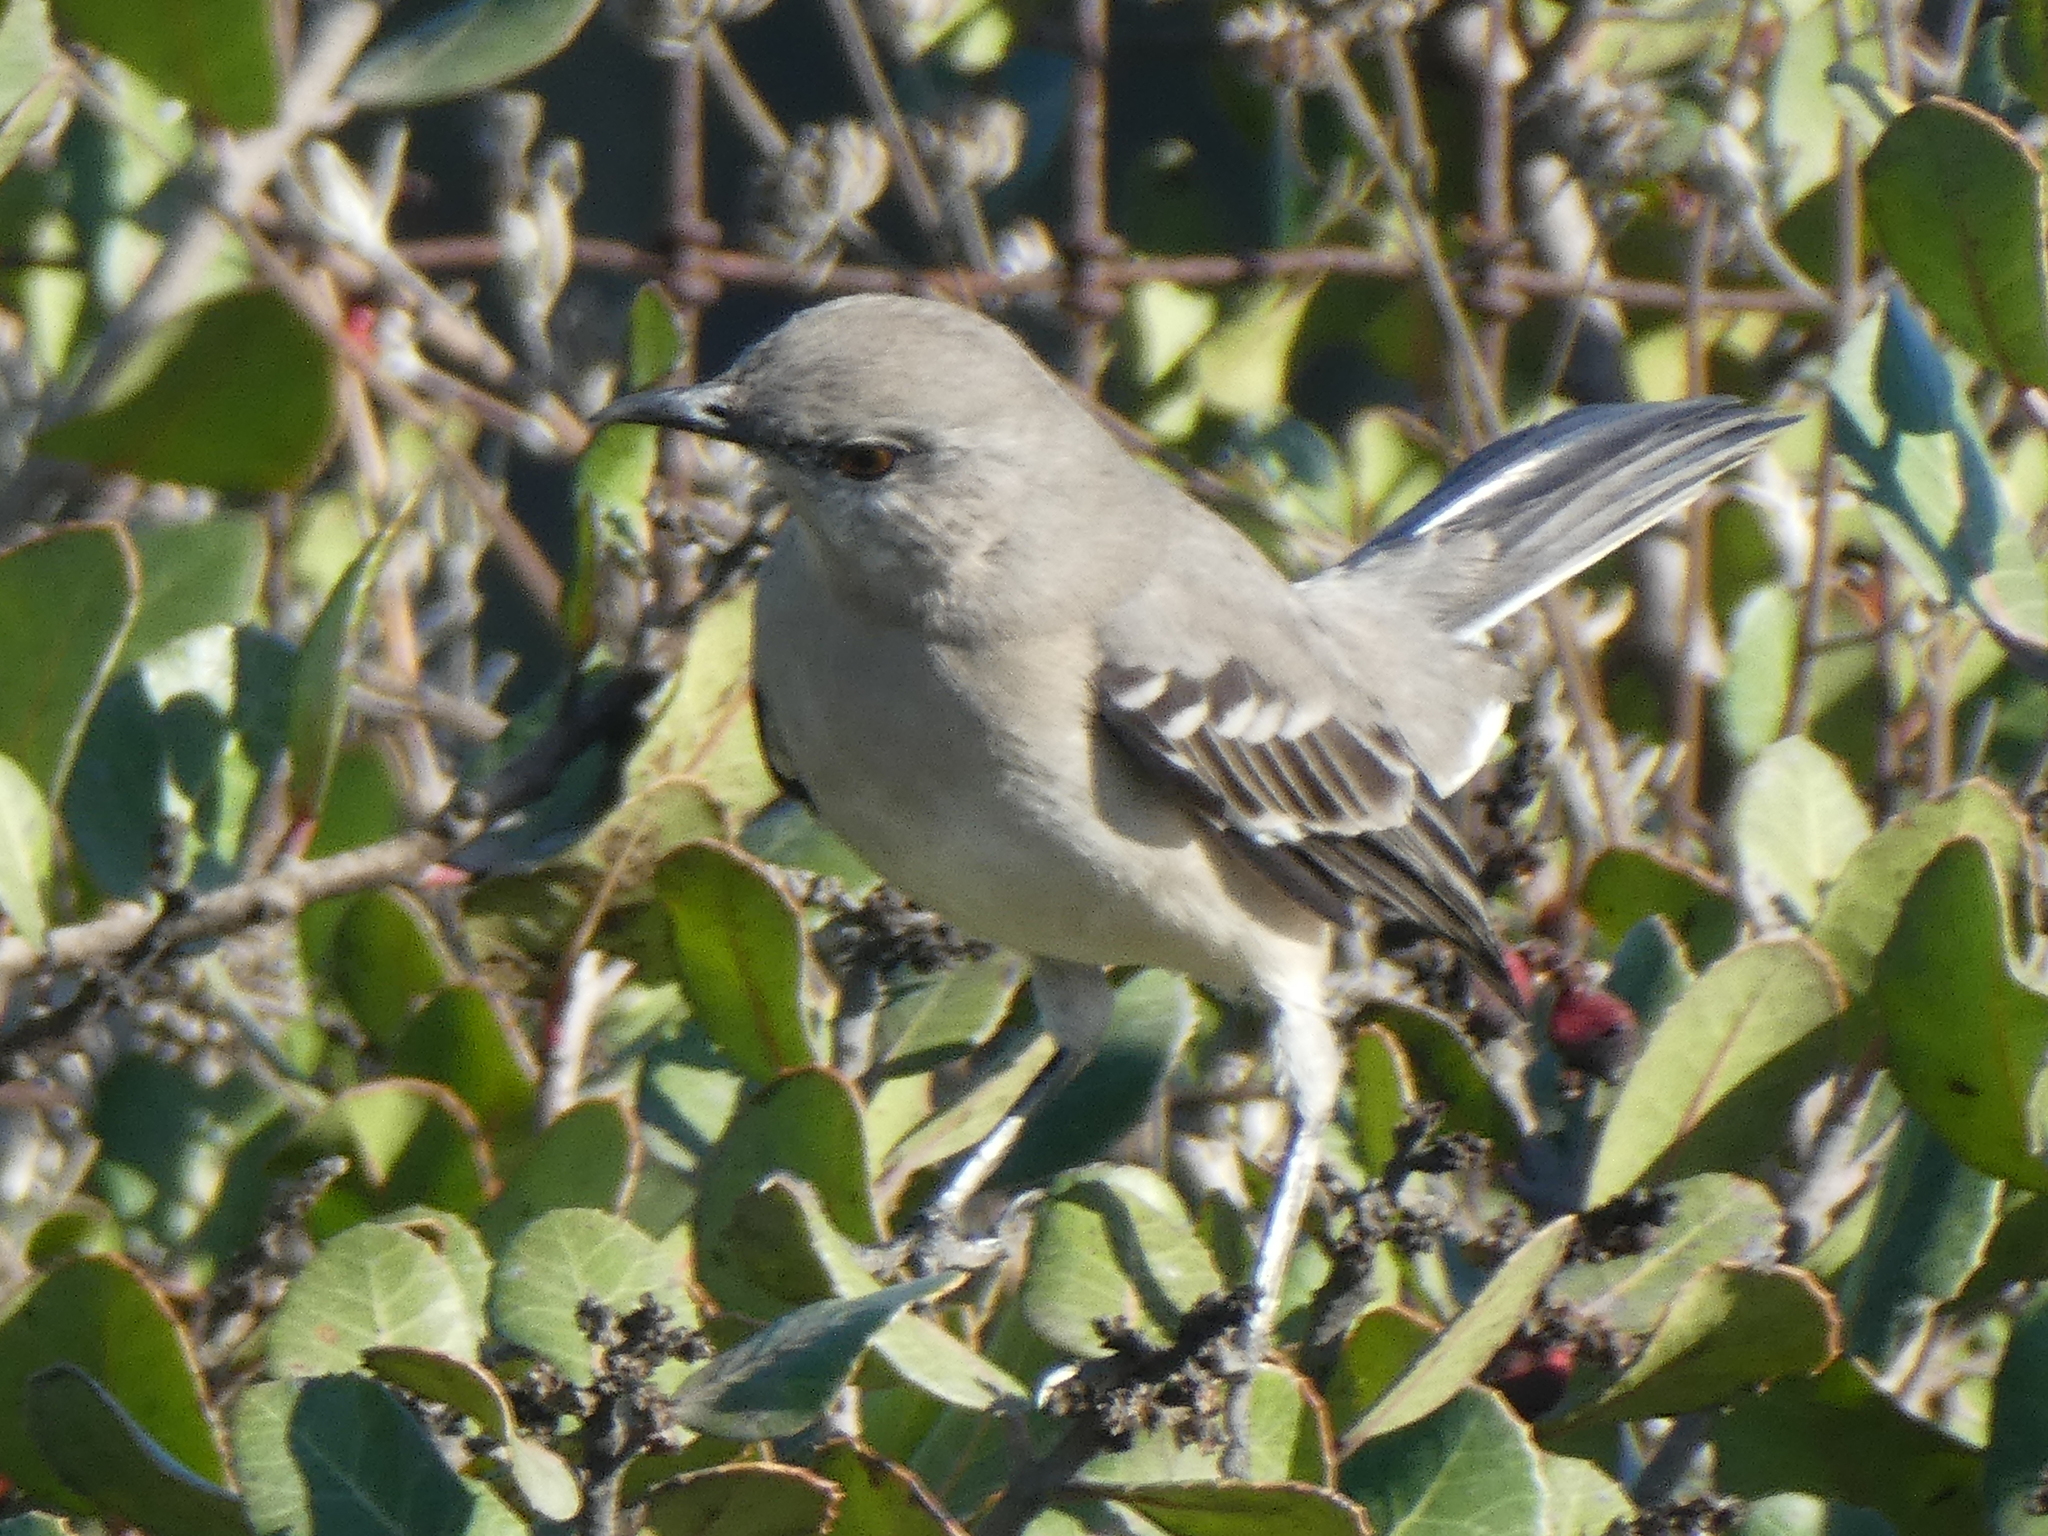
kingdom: Animalia
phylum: Chordata
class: Aves
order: Passeriformes
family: Mimidae
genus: Mimus
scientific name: Mimus polyglottos
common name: Northern mockingbird
